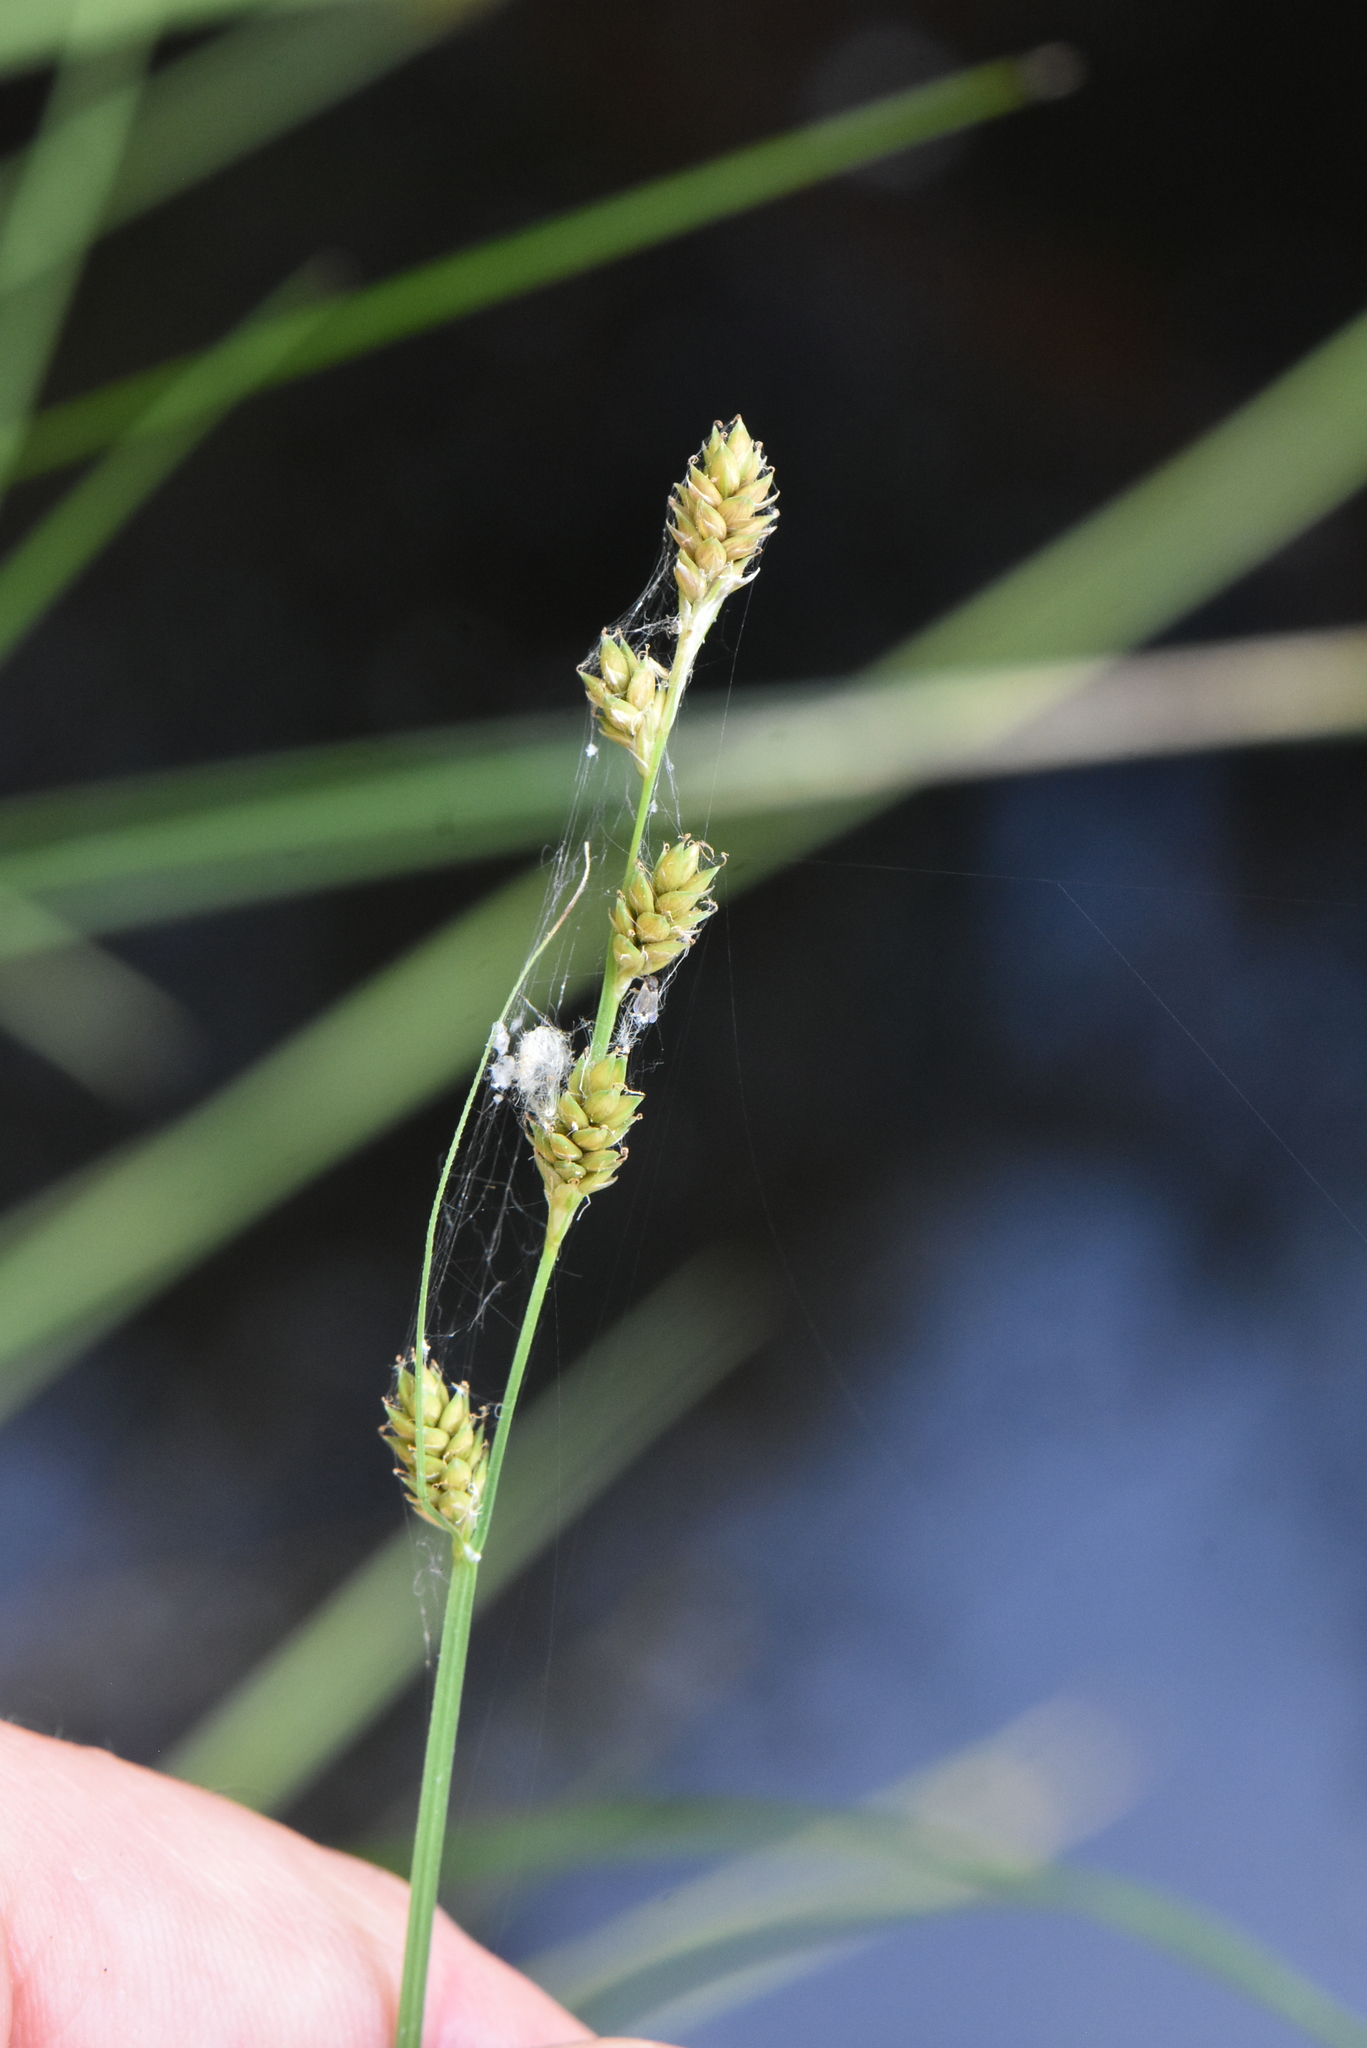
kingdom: Plantae
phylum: Tracheophyta
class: Liliopsida
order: Poales
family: Cyperaceae
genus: Carex
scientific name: Carex canescens
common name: White sedge
